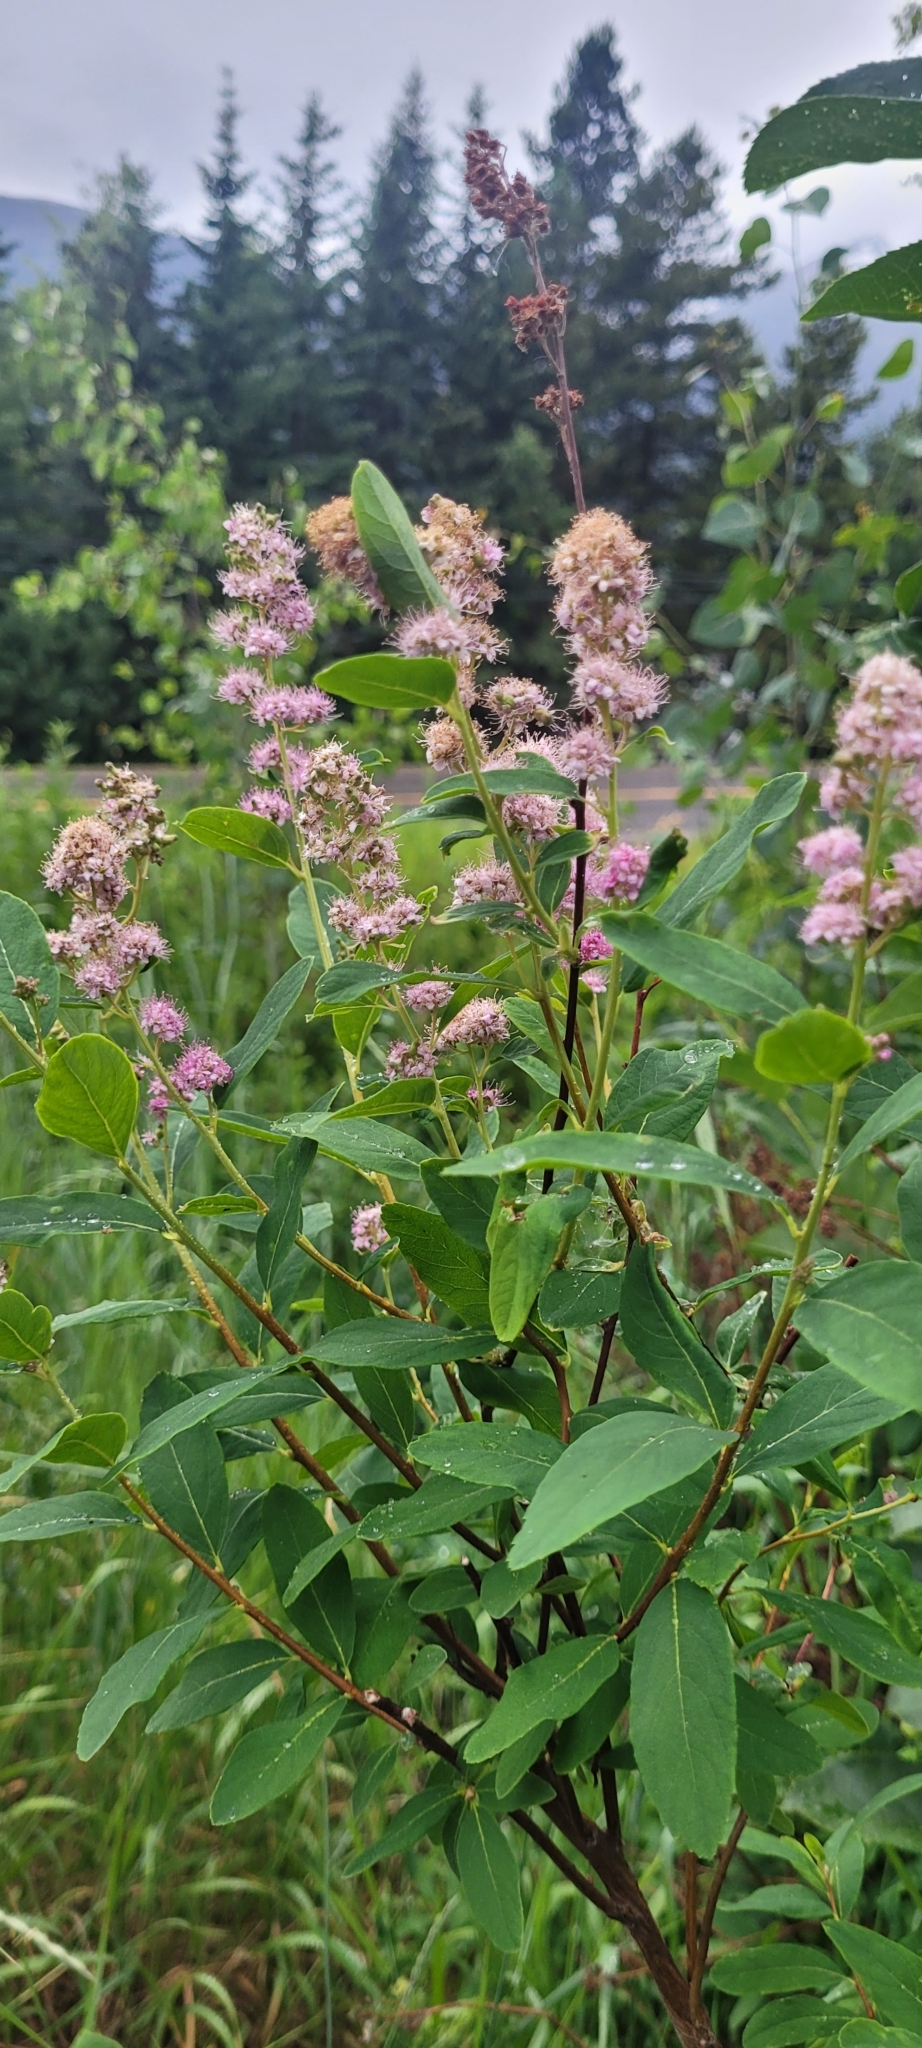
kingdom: Plantae
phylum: Tracheophyta
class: Magnoliopsida
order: Rosales
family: Rosaceae
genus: Spiraea
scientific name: Spiraea douglasii
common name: Steeplebush
